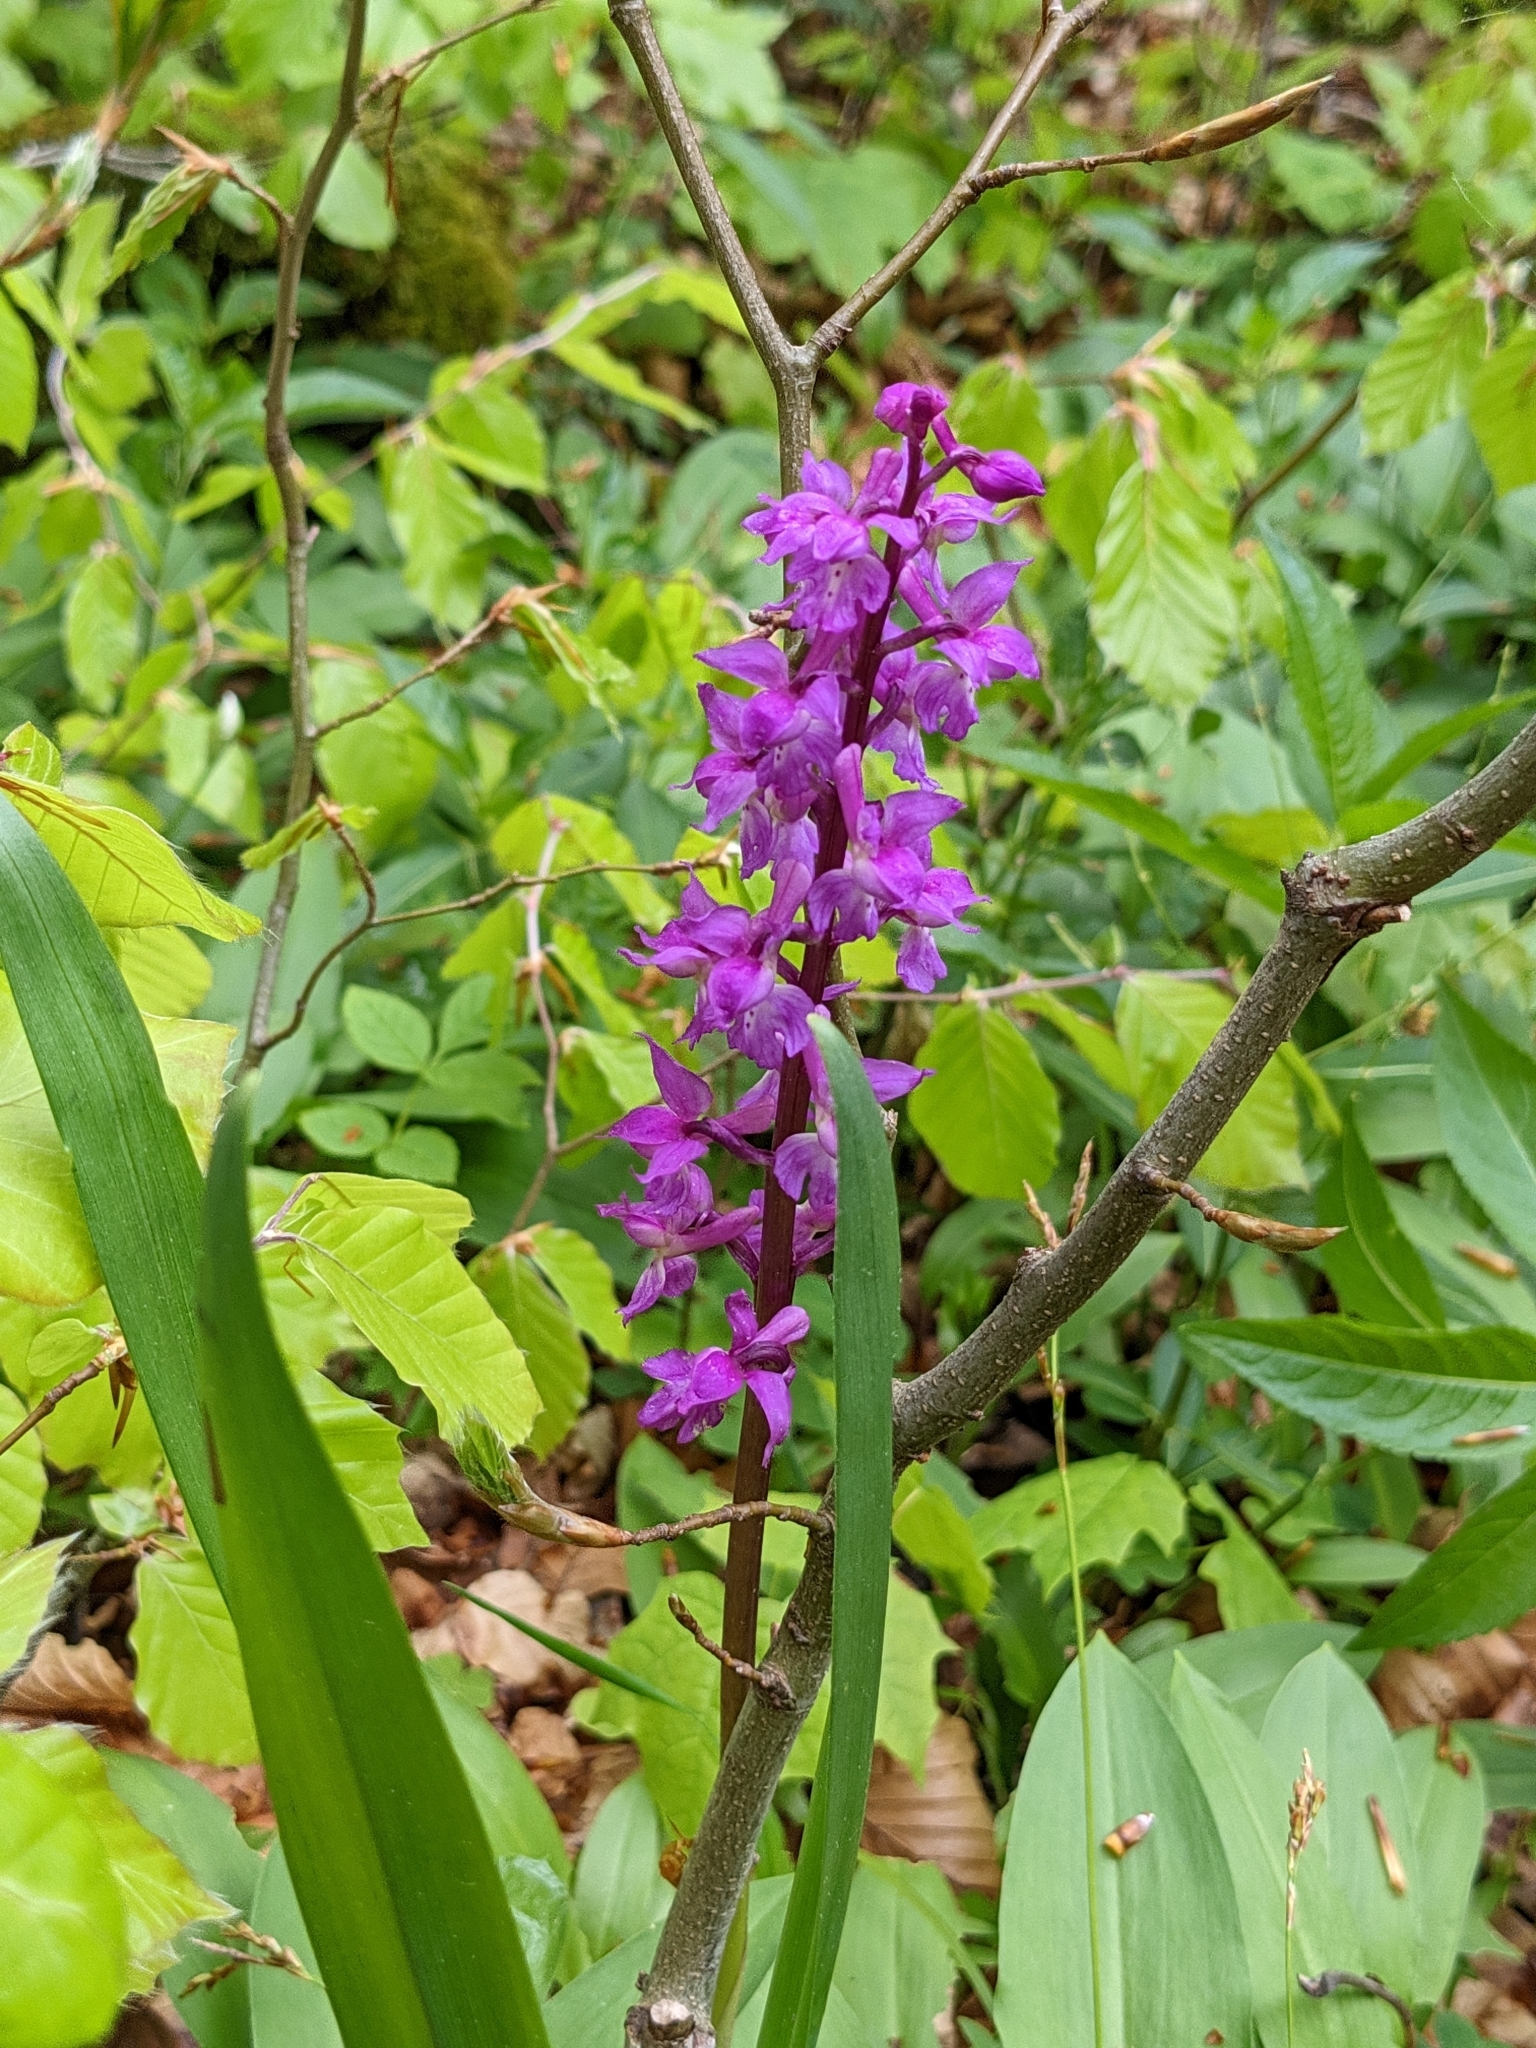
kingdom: Plantae
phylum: Tracheophyta
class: Liliopsida
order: Asparagales
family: Orchidaceae
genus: Orchis
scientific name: Orchis mascula
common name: Early-purple orchid
